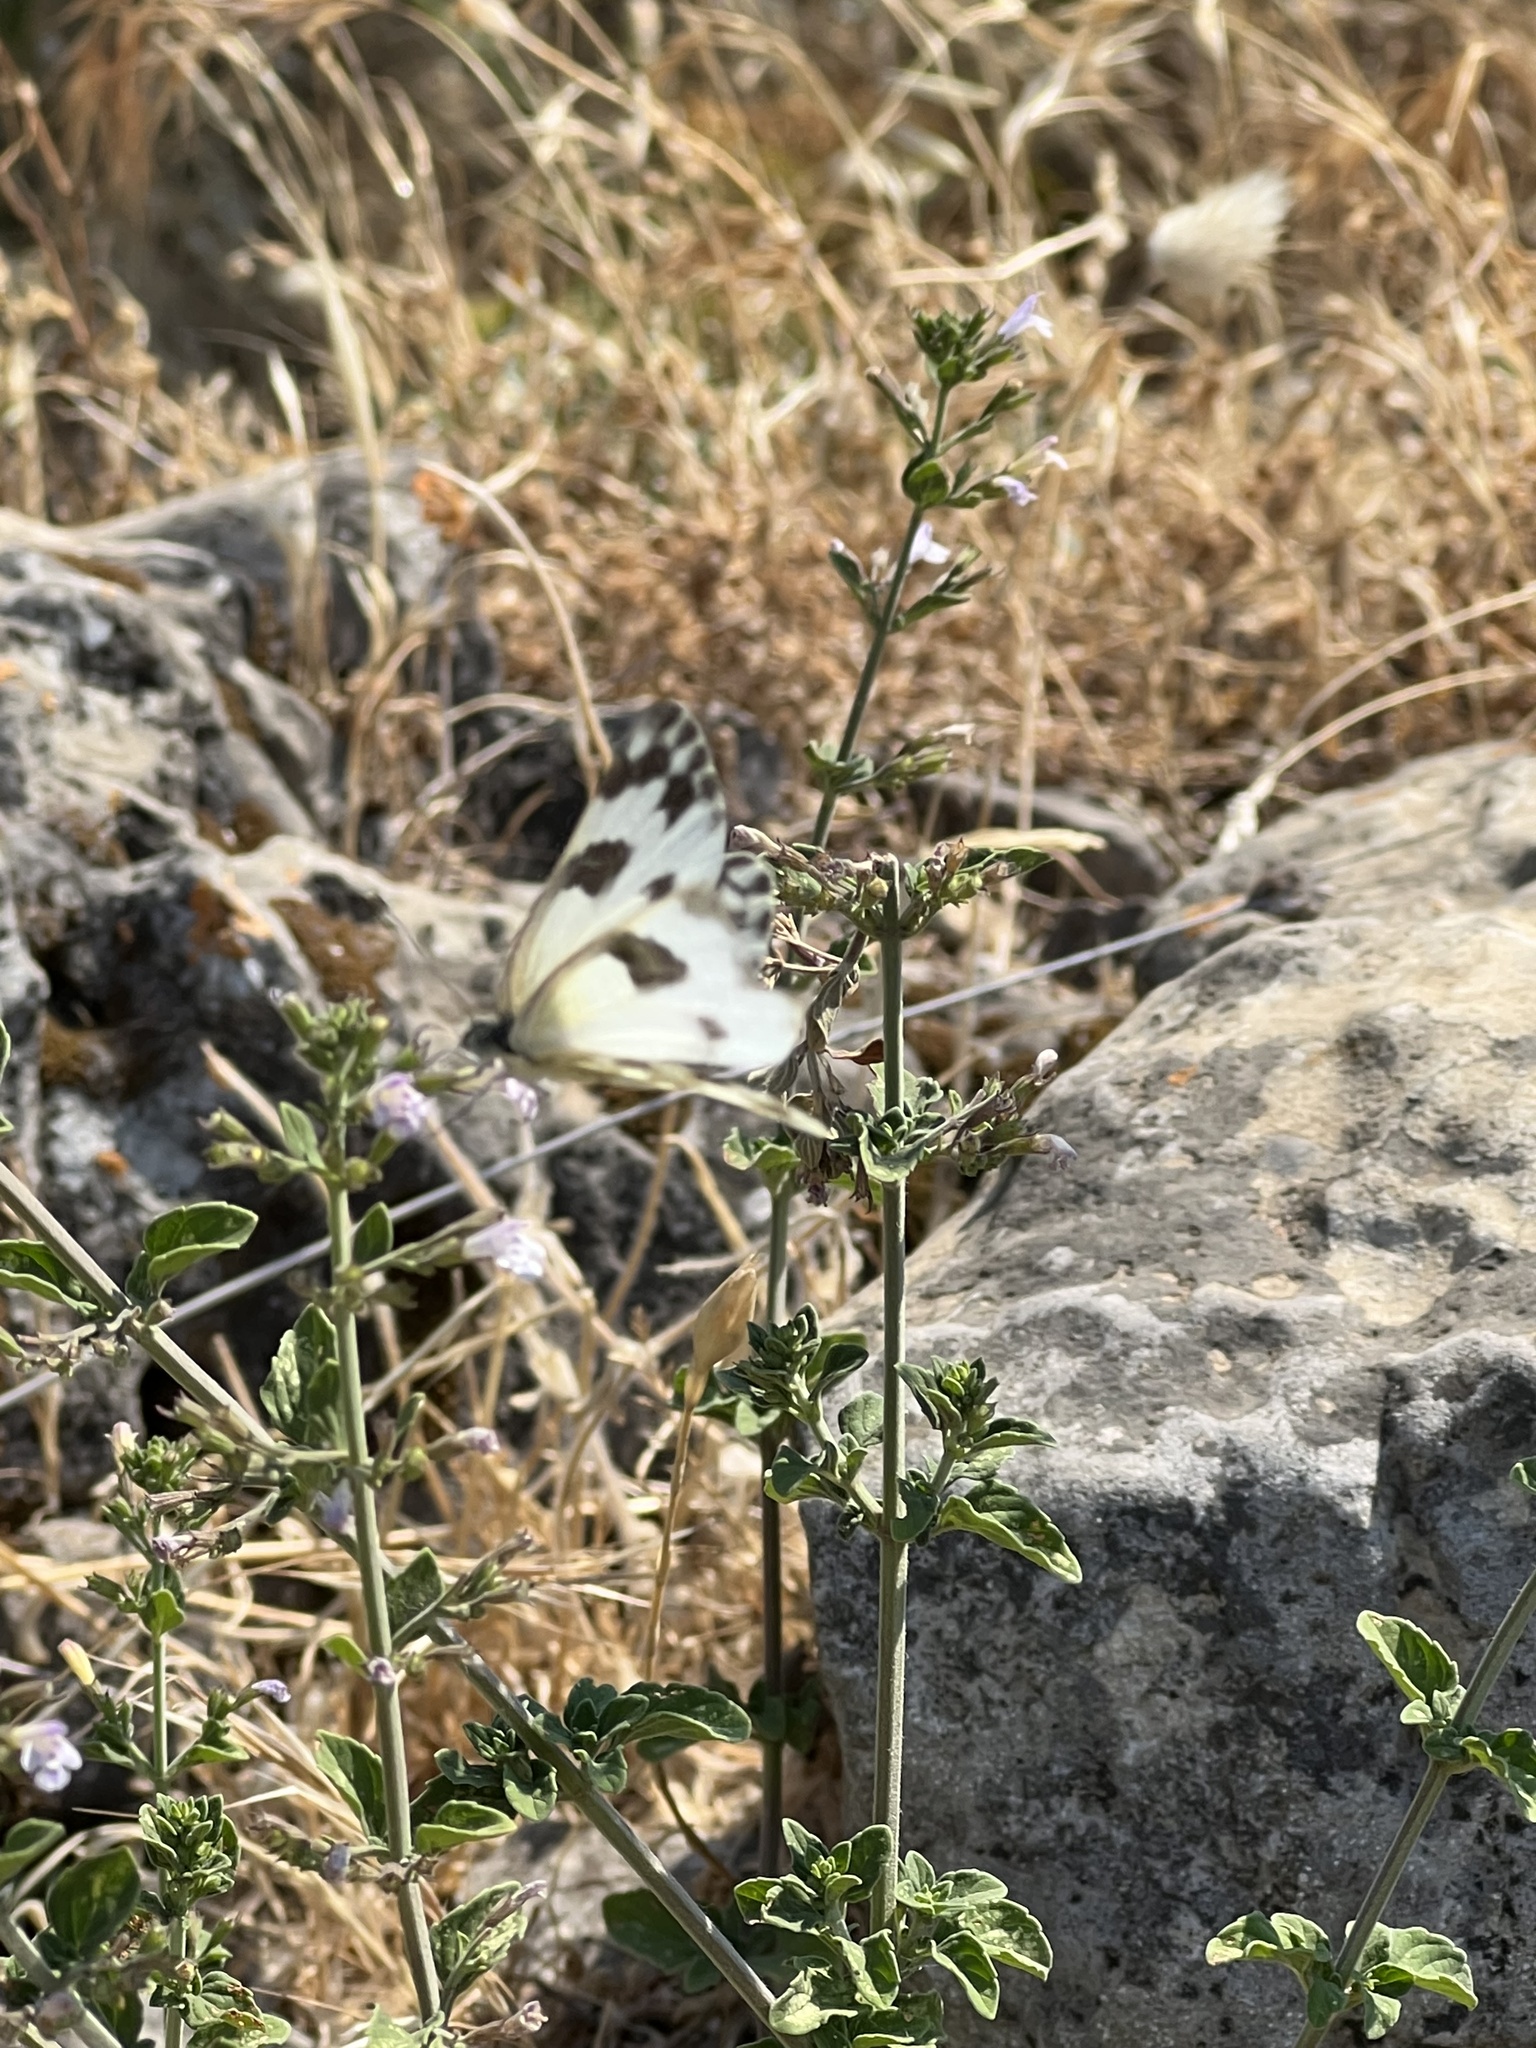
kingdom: Animalia
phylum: Arthropoda
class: Insecta
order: Lepidoptera
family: Pieridae
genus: Pontia
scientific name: Pontia edusa
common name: Eastern bath white
